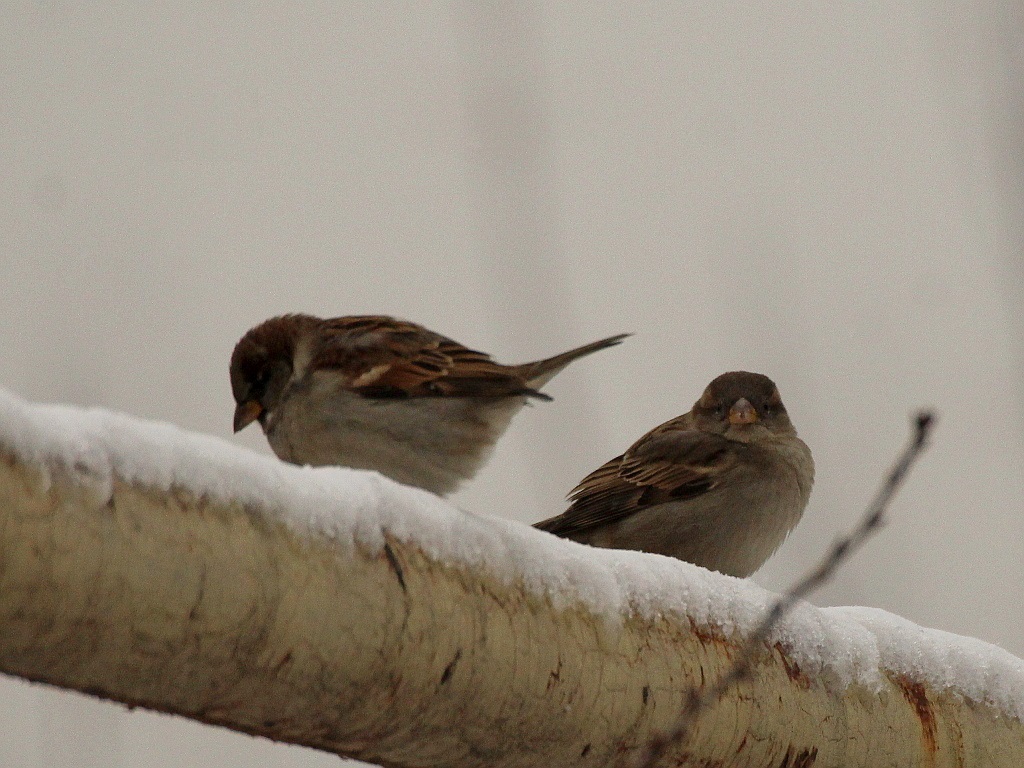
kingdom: Animalia
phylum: Chordata
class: Aves
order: Passeriformes
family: Passeridae
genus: Passer
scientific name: Passer domesticus
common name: House sparrow
